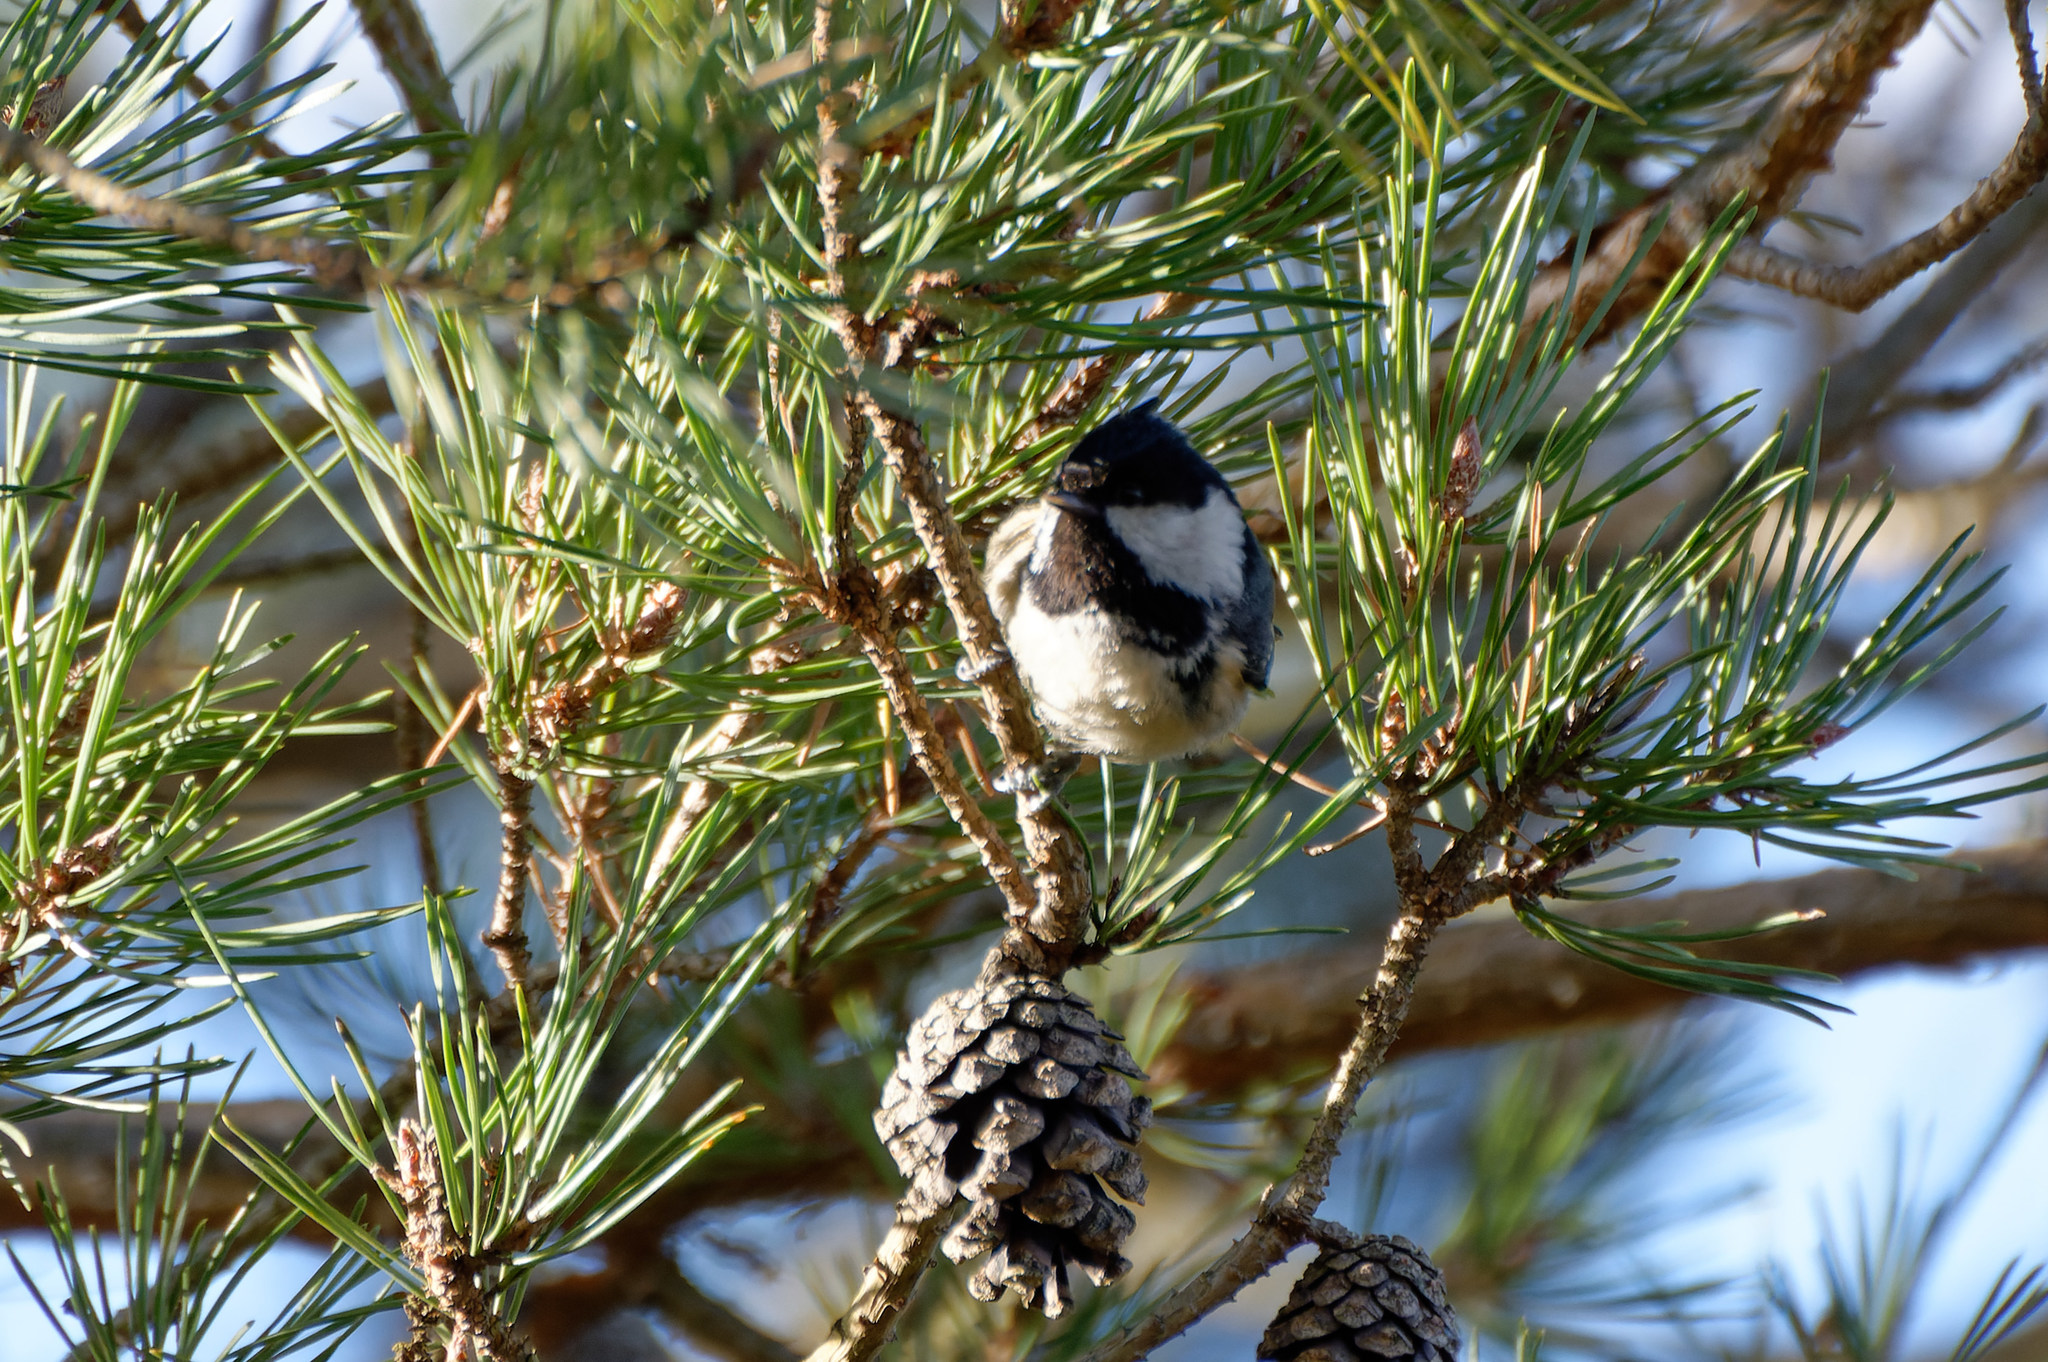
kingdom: Animalia
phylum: Chordata
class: Aves
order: Passeriformes
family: Paridae
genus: Periparus
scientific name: Periparus ater
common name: Coal tit
